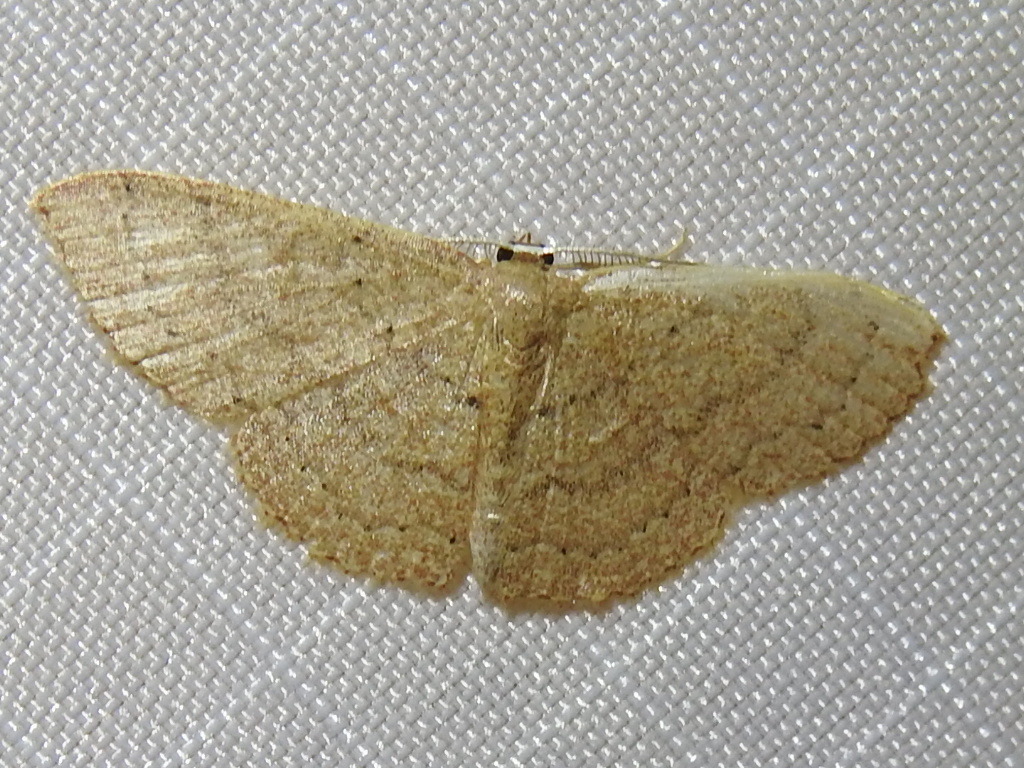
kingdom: Animalia
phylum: Arthropoda
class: Insecta
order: Lepidoptera
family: Geometridae
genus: Pleuroprucha
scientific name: Pleuroprucha insulsaria
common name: Common tan wave
